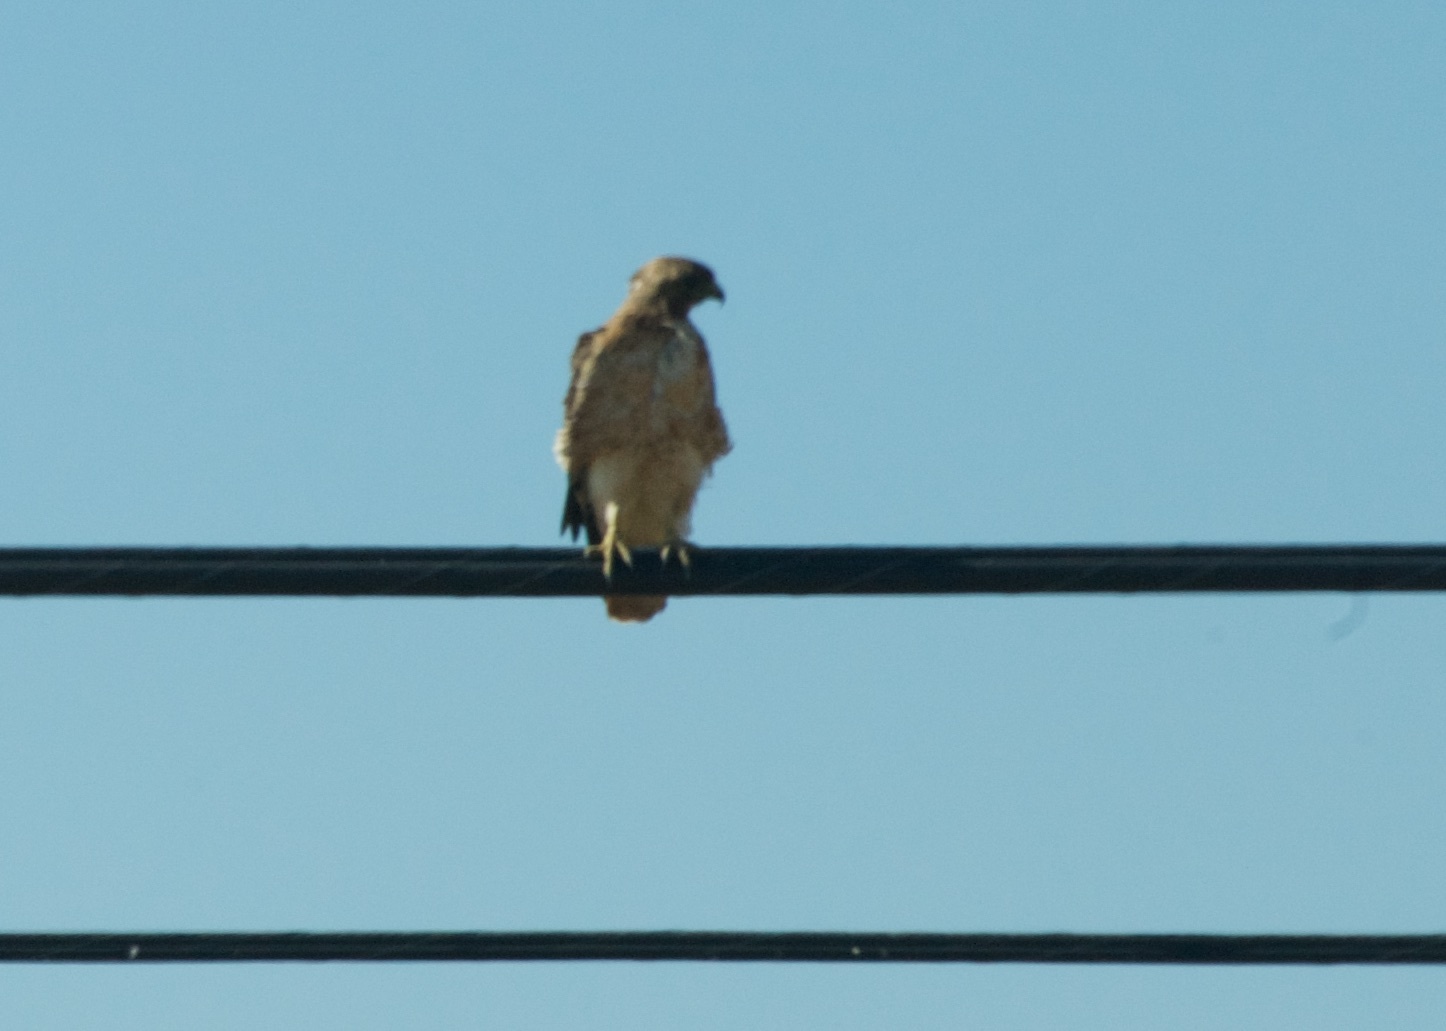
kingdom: Animalia
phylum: Chordata
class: Aves
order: Accipitriformes
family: Accipitridae
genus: Buteo
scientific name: Buteo jamaicensis
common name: Red-tailed hawk
